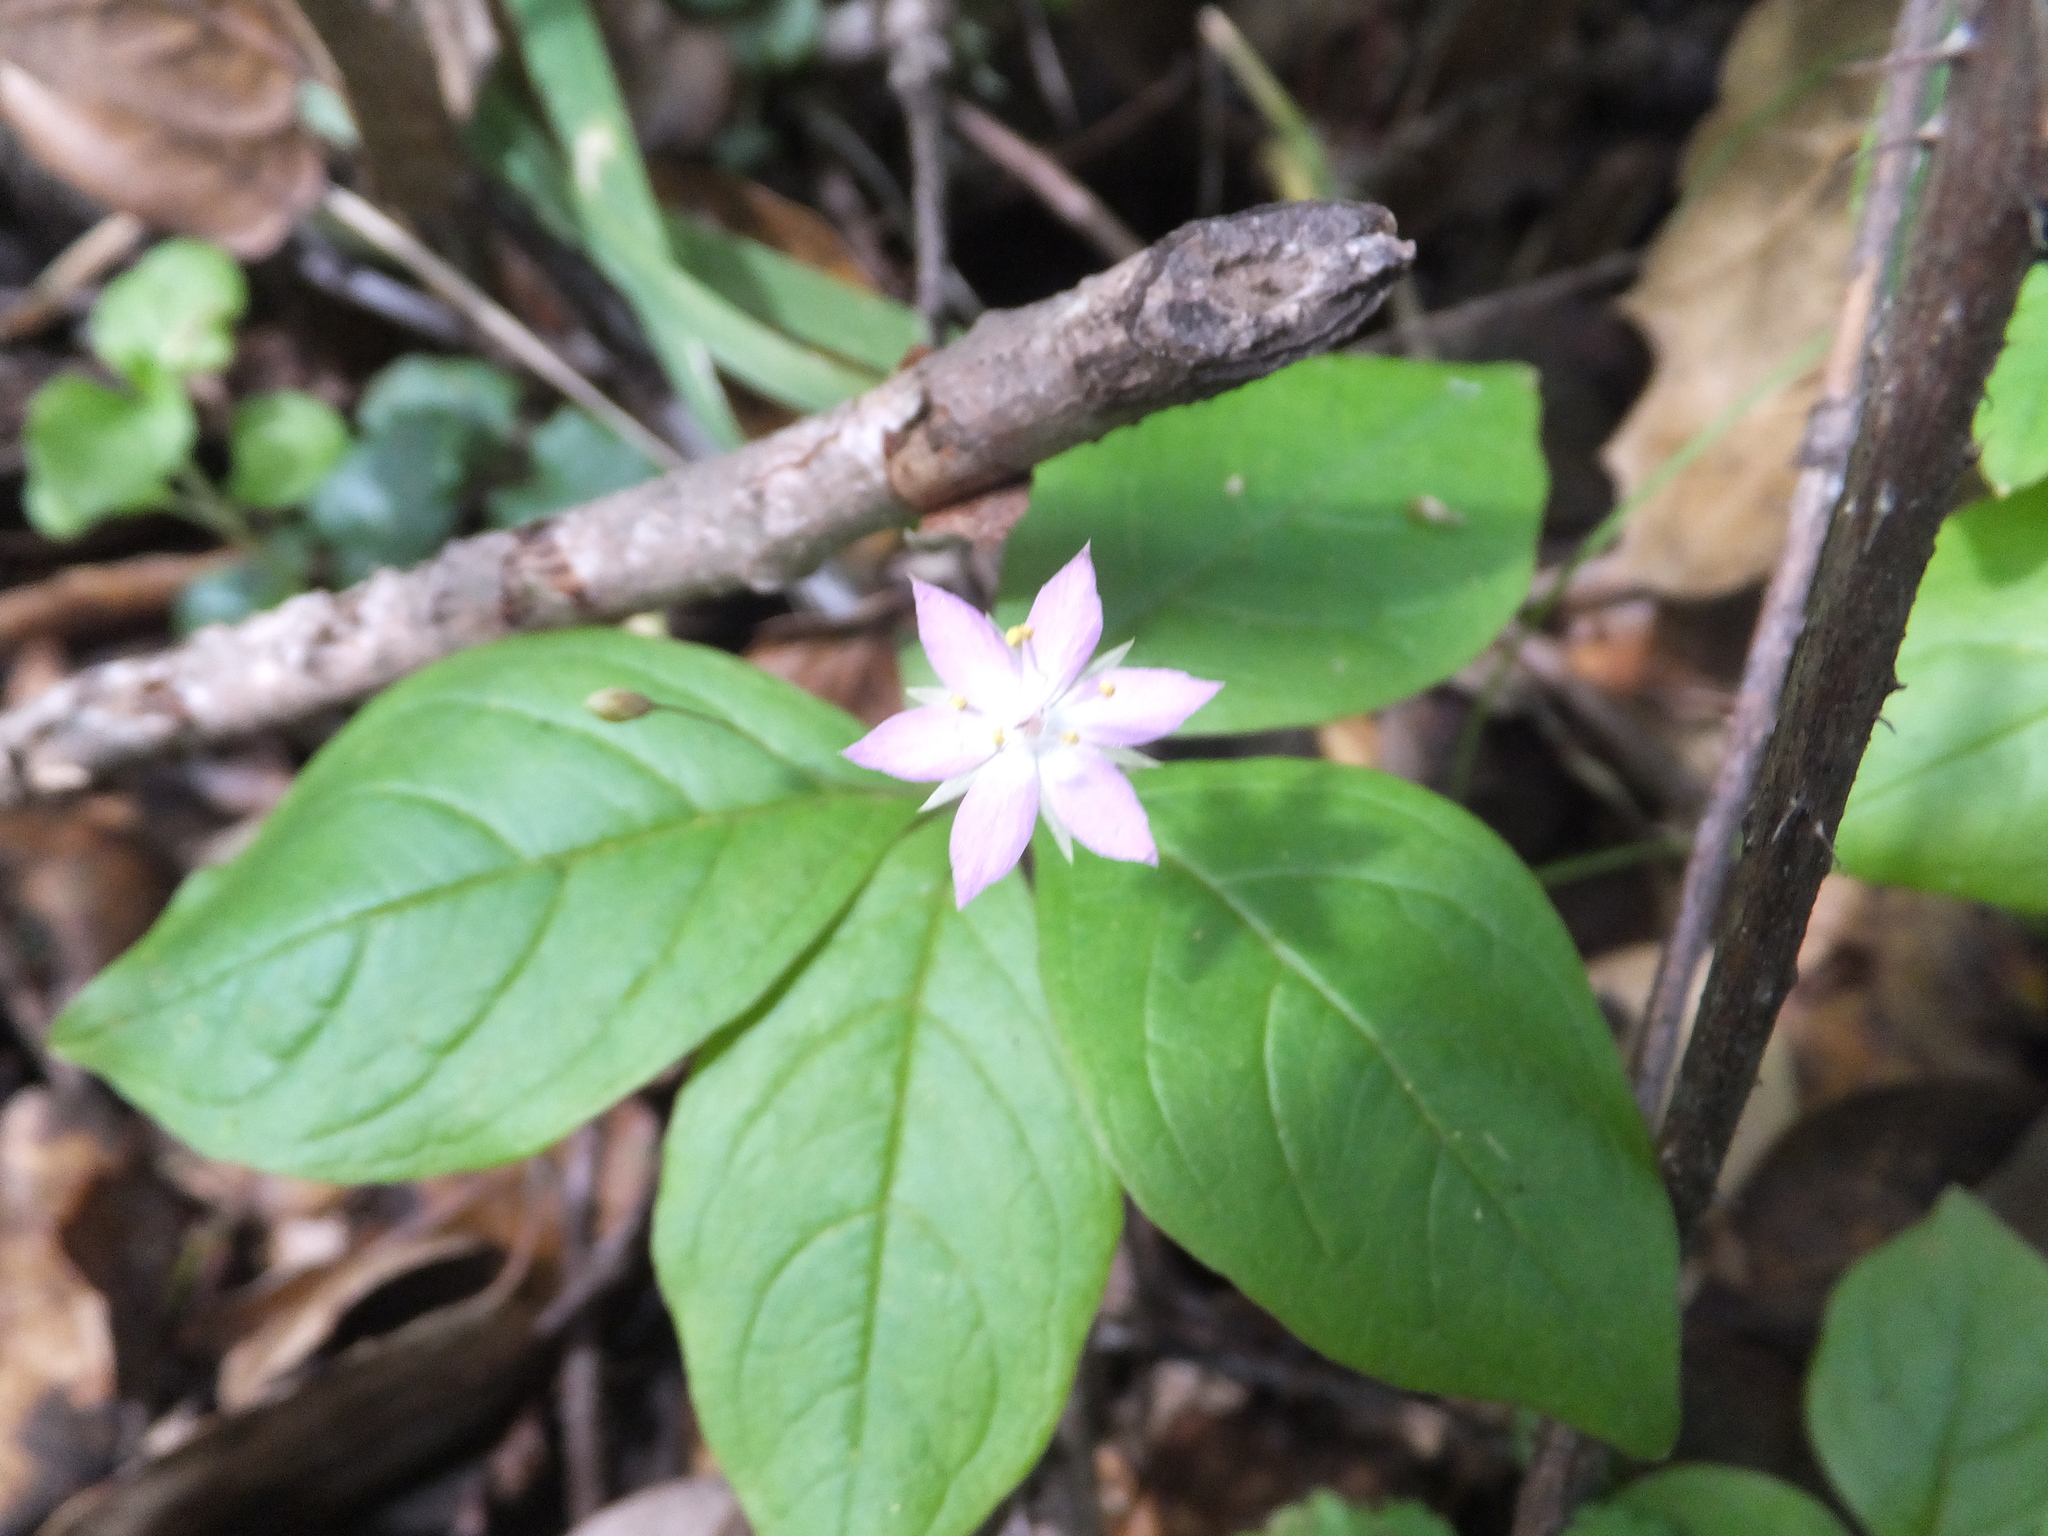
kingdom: Plantae
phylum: Tracheophyta
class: Magnoliopsida
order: Ericales
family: Primulaceae
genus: Lysimachia
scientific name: Lysimachia latifolia
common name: Pacific starflower
